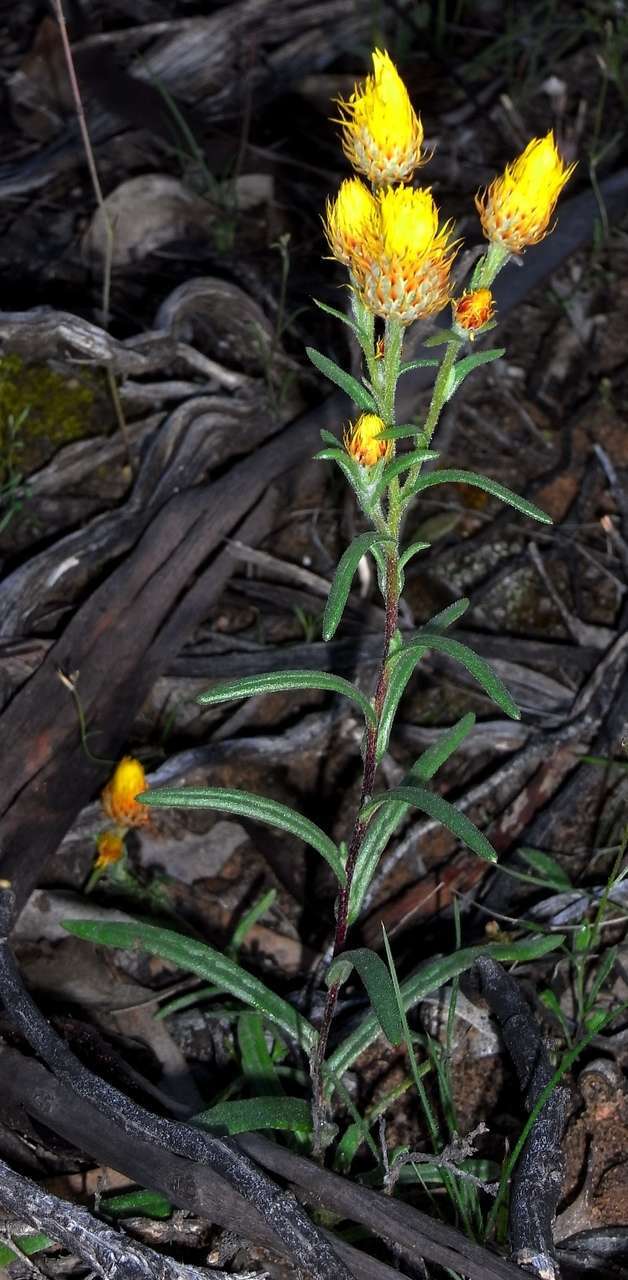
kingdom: Plantae
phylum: Tracheophyta
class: Magnoliopsida
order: Asterales
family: Asteraceae
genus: Waitzia
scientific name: Waitzia acuminata
